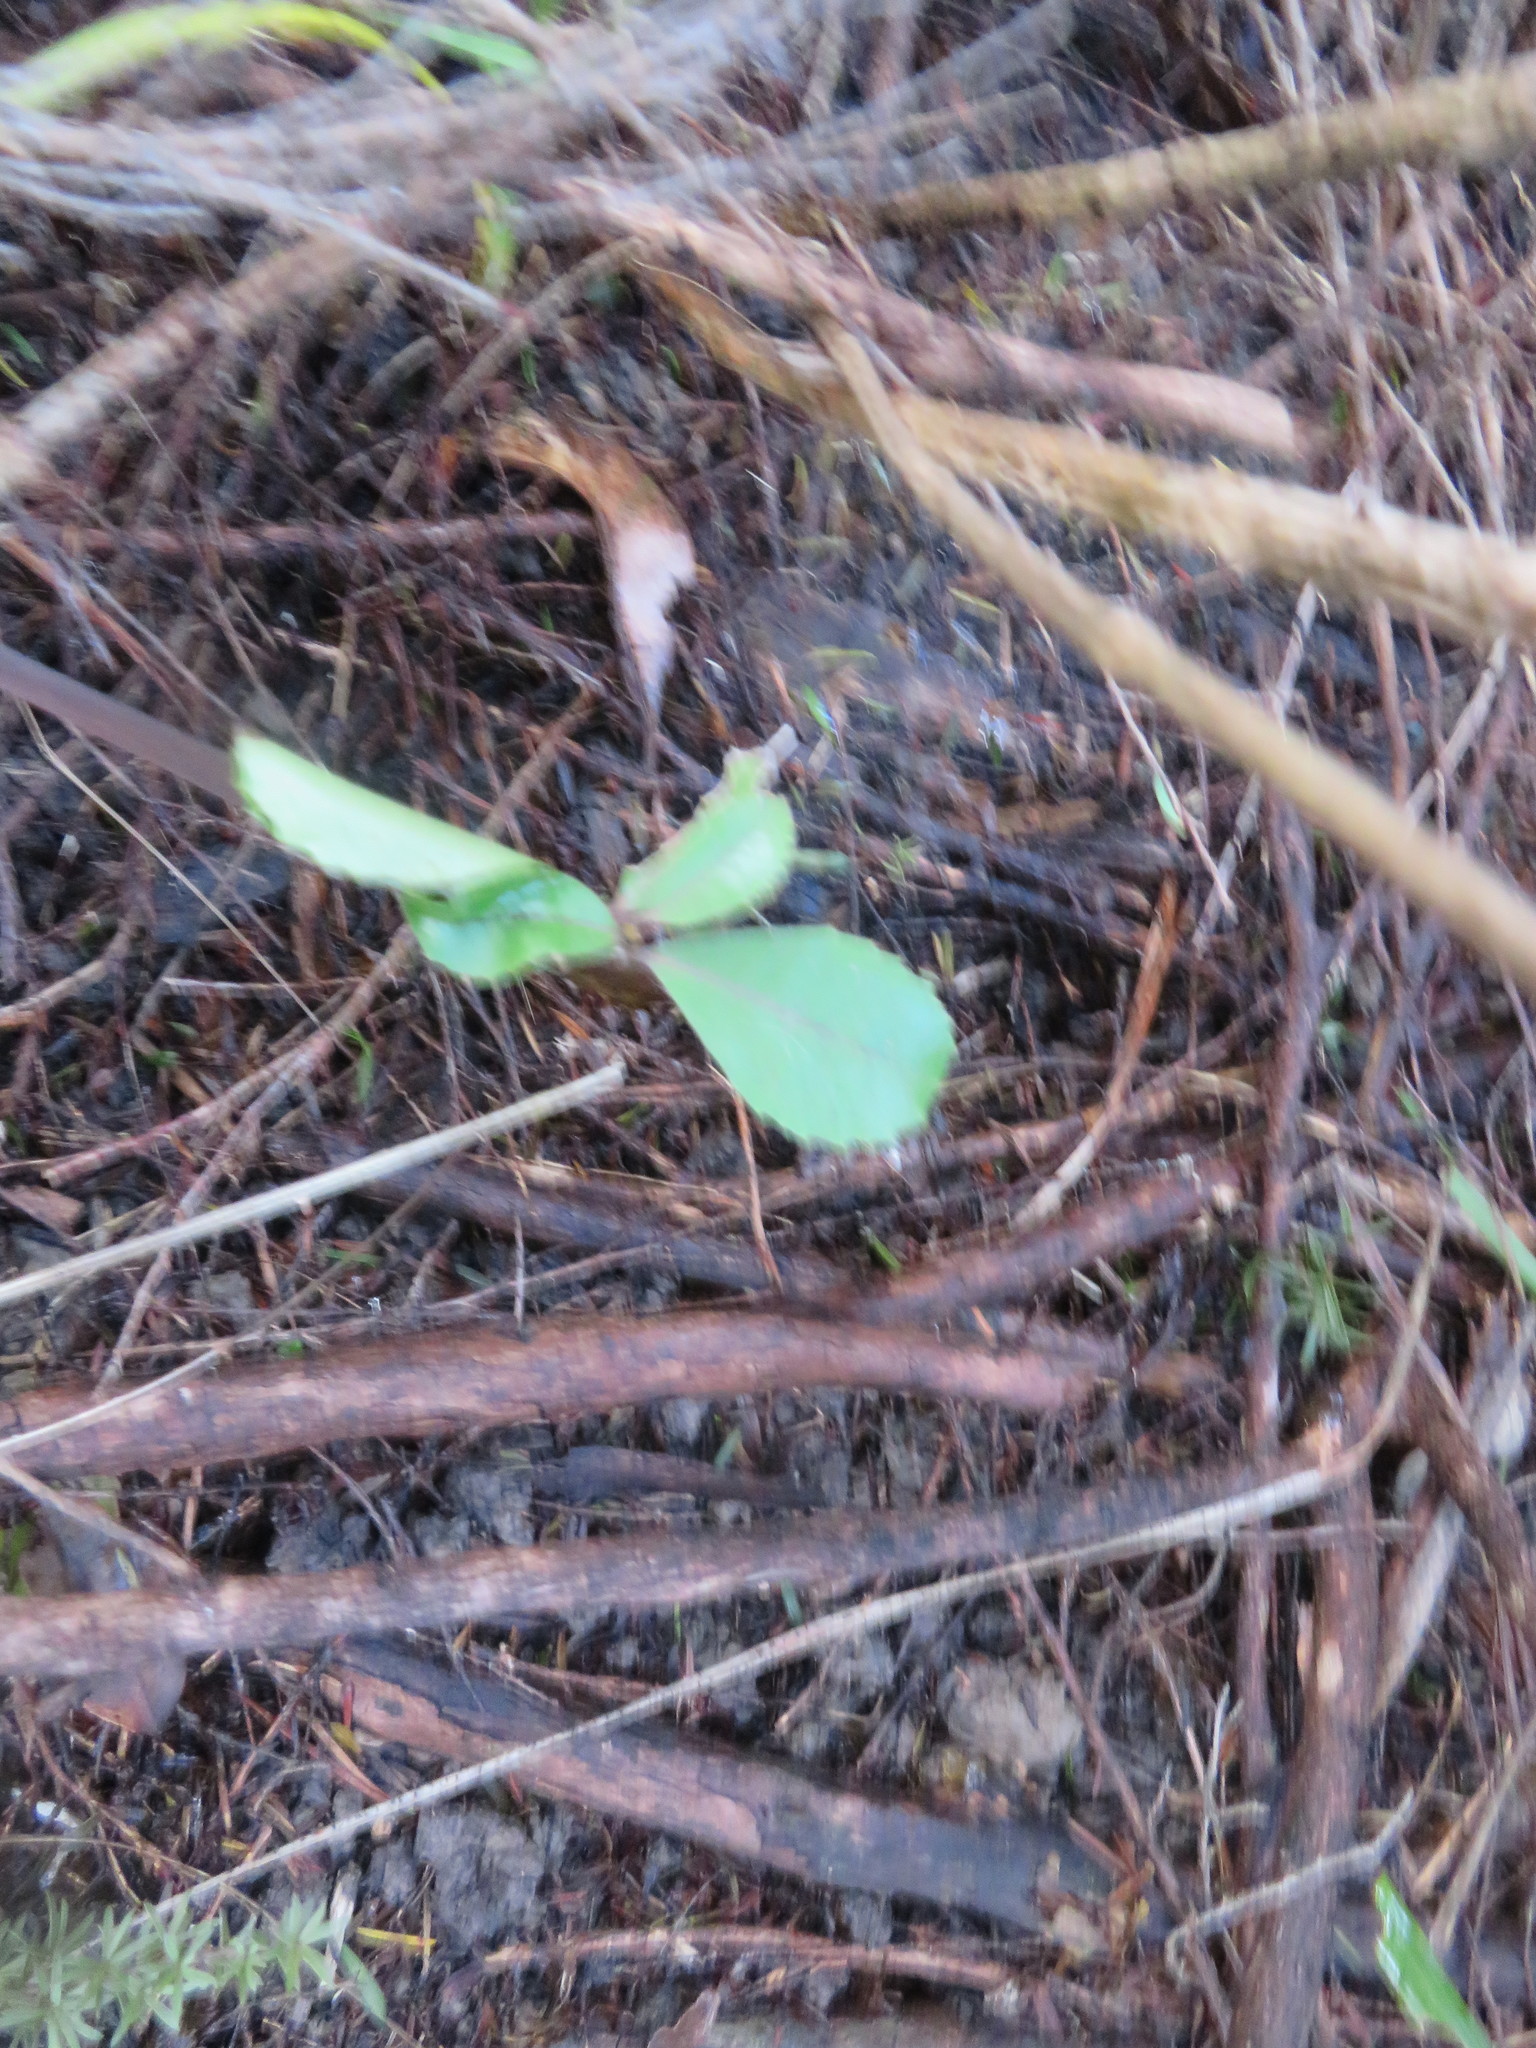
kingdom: Plantae
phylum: Tracheophyta
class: Magnoliopsida
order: Laurales
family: Monimiaceae
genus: Hedycarya
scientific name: Hedycarya arborea
